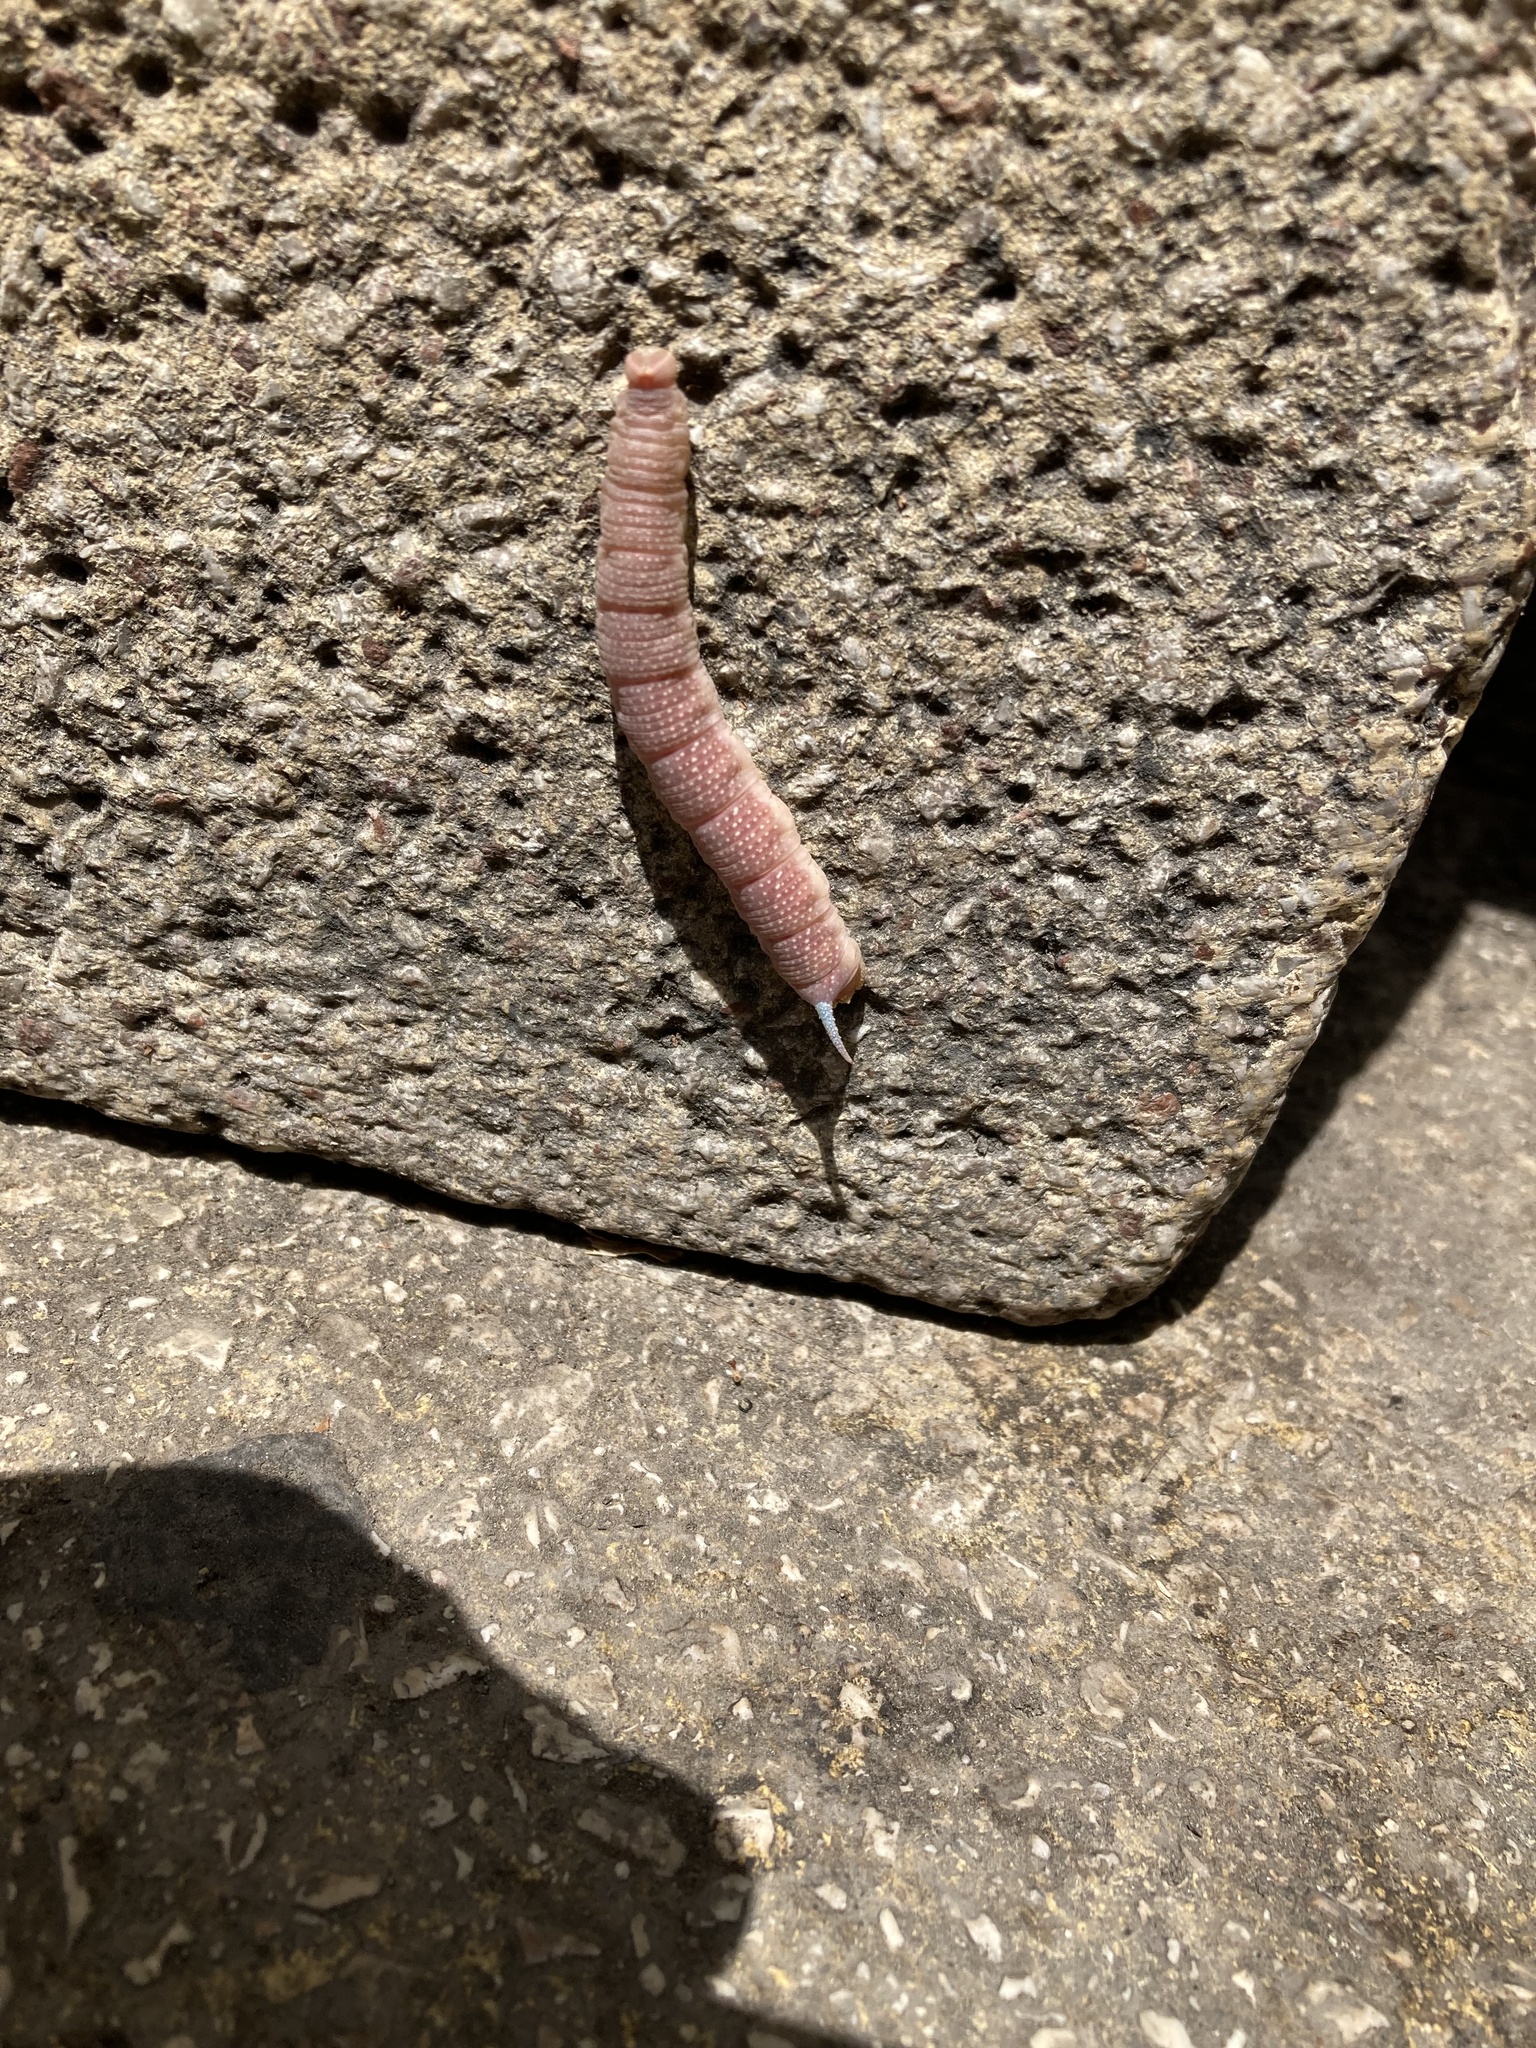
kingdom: Animalia
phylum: Arthropoda
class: Insecta
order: Lepidoptera
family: Sphingidae
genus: Mimas
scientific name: Mimas tiliae
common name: Lime hawk-moth
